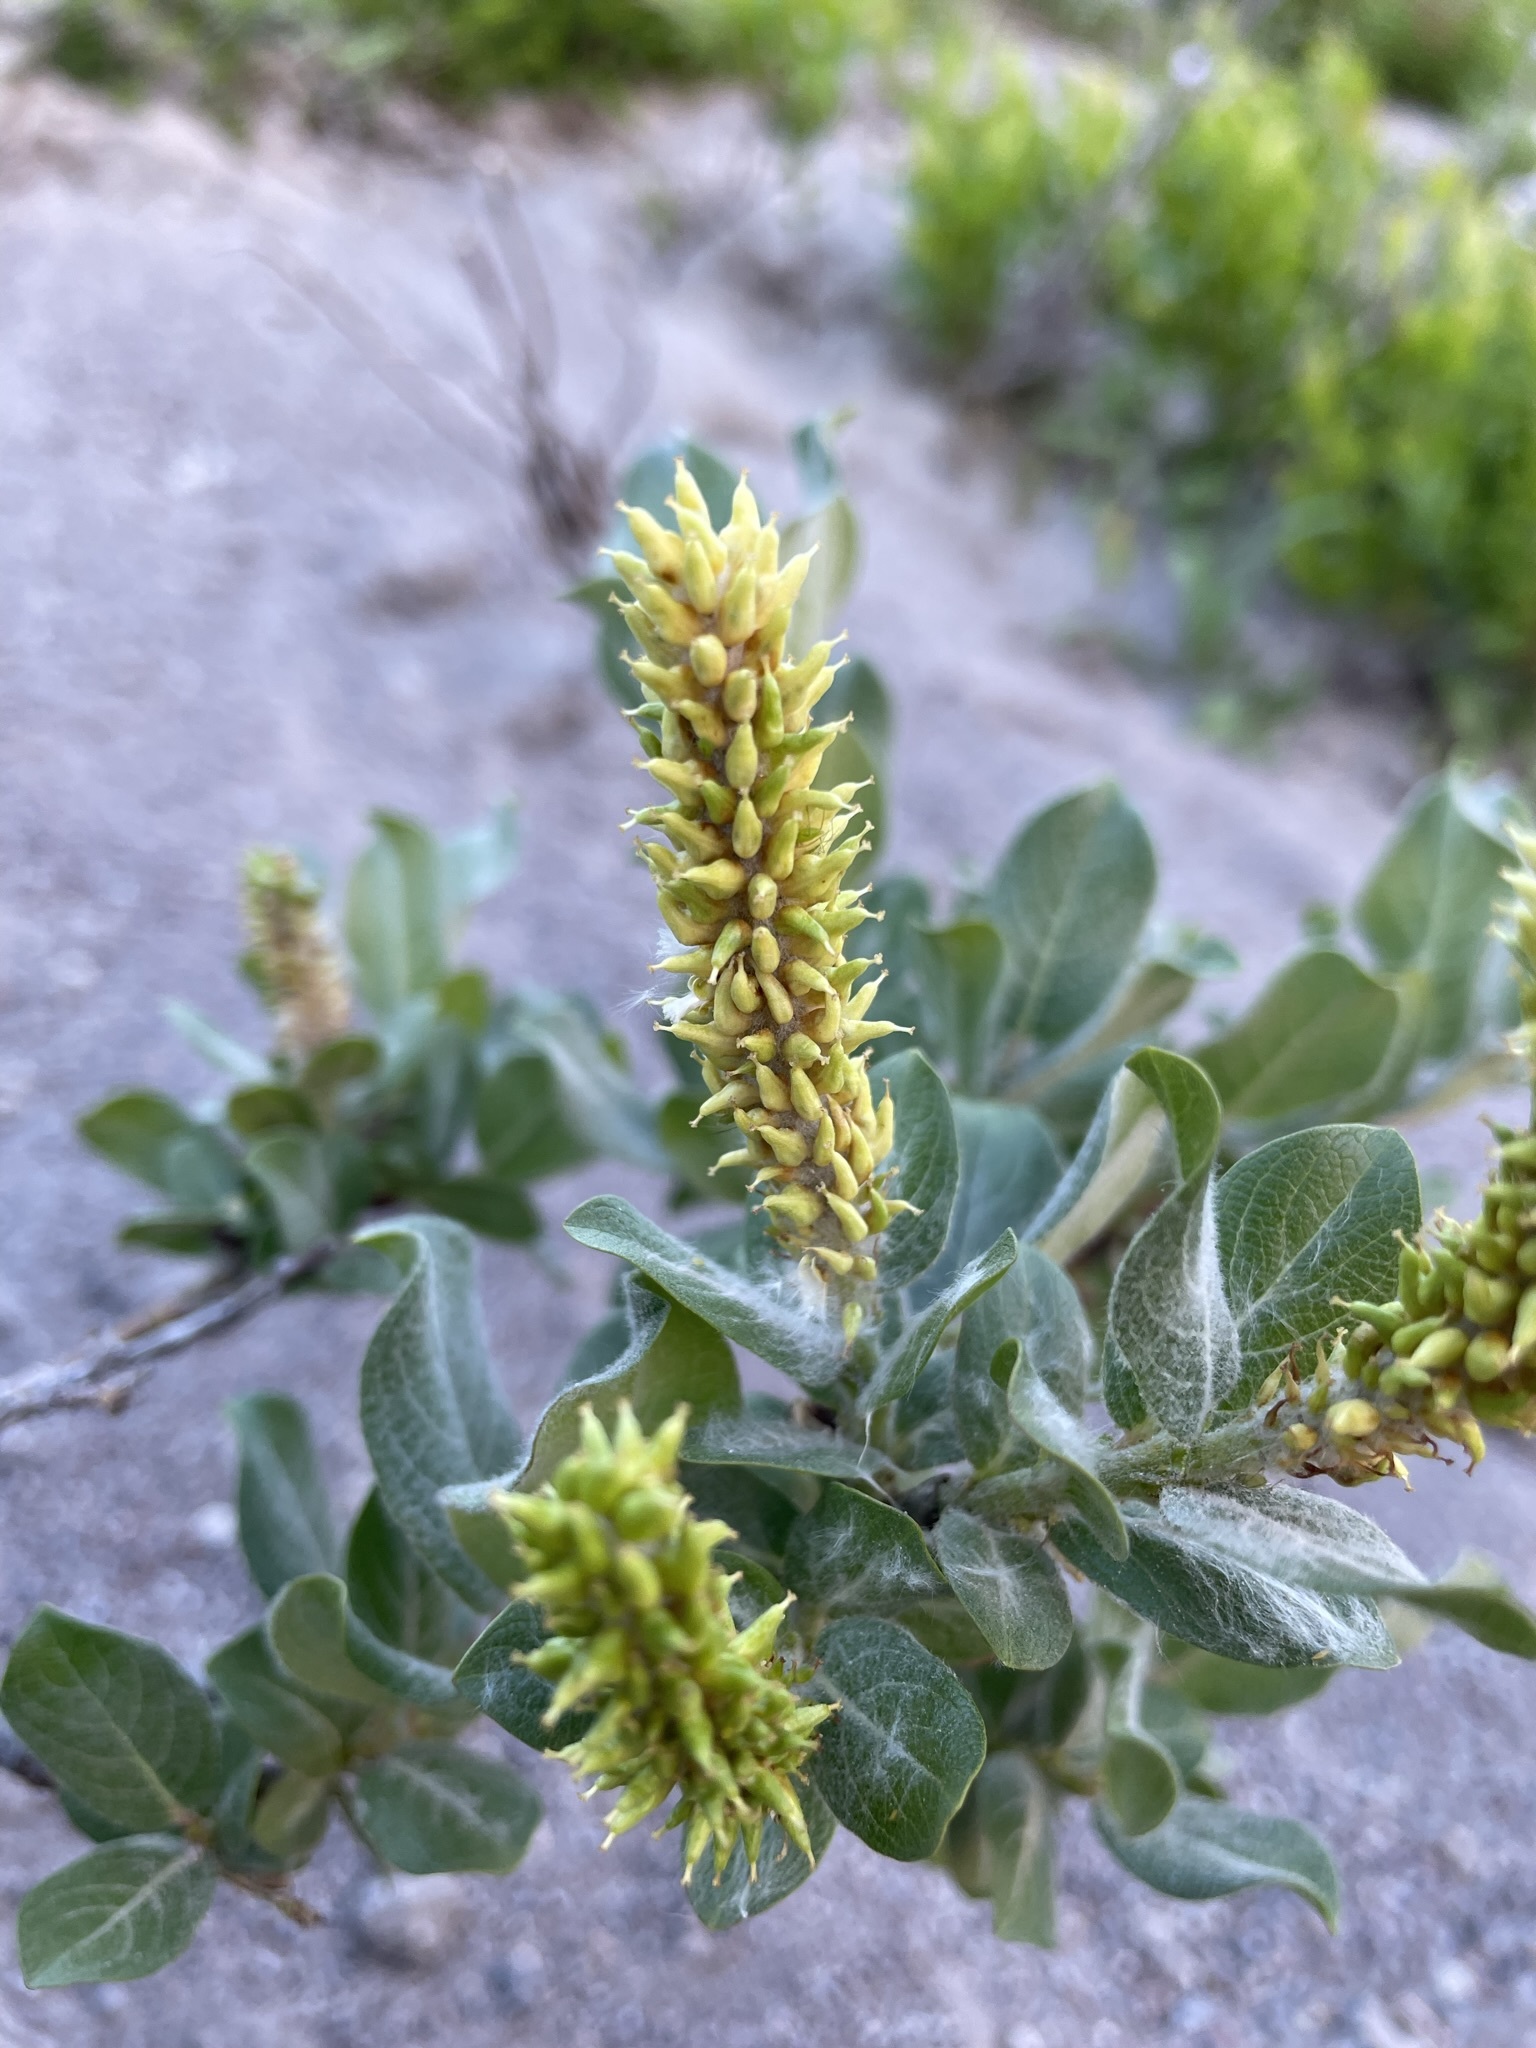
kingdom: Plantae
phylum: Tracheophyta
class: Magnoliopsida
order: Malpighiales
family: Salicaceae
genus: Salix
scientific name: Salix commutata
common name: Under-green willow
